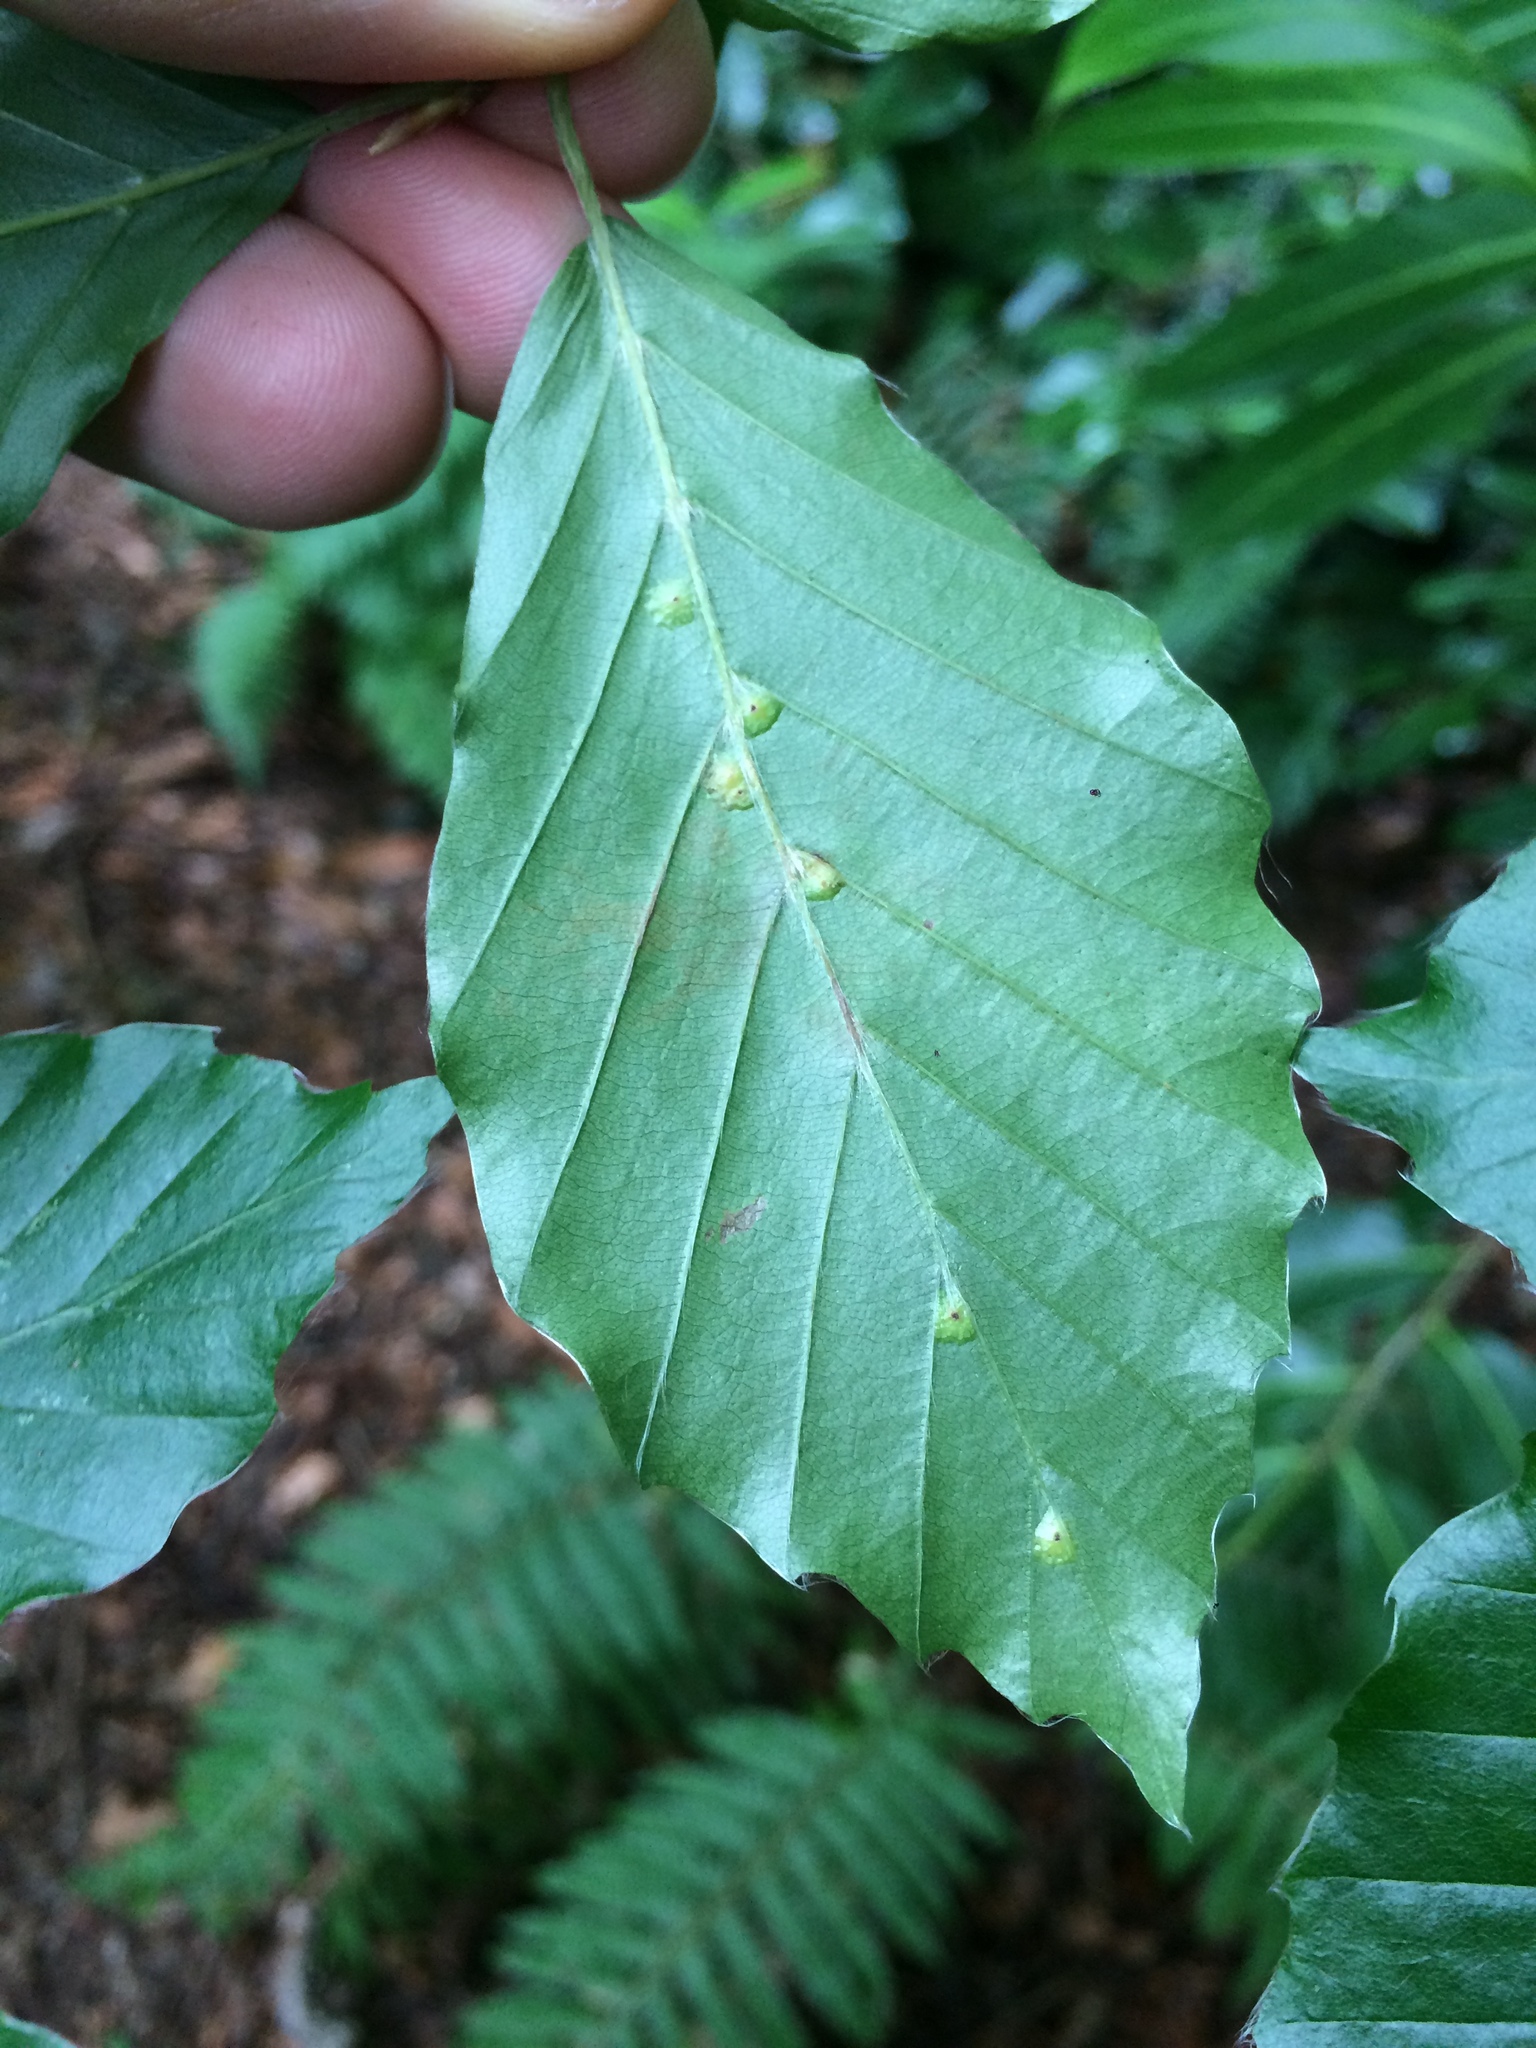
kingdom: Animalia
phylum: Arthropoda
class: Insecta
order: Diptera
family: Cecidomyiidae
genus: Hartigiola
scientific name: Hartigiola annulipes
